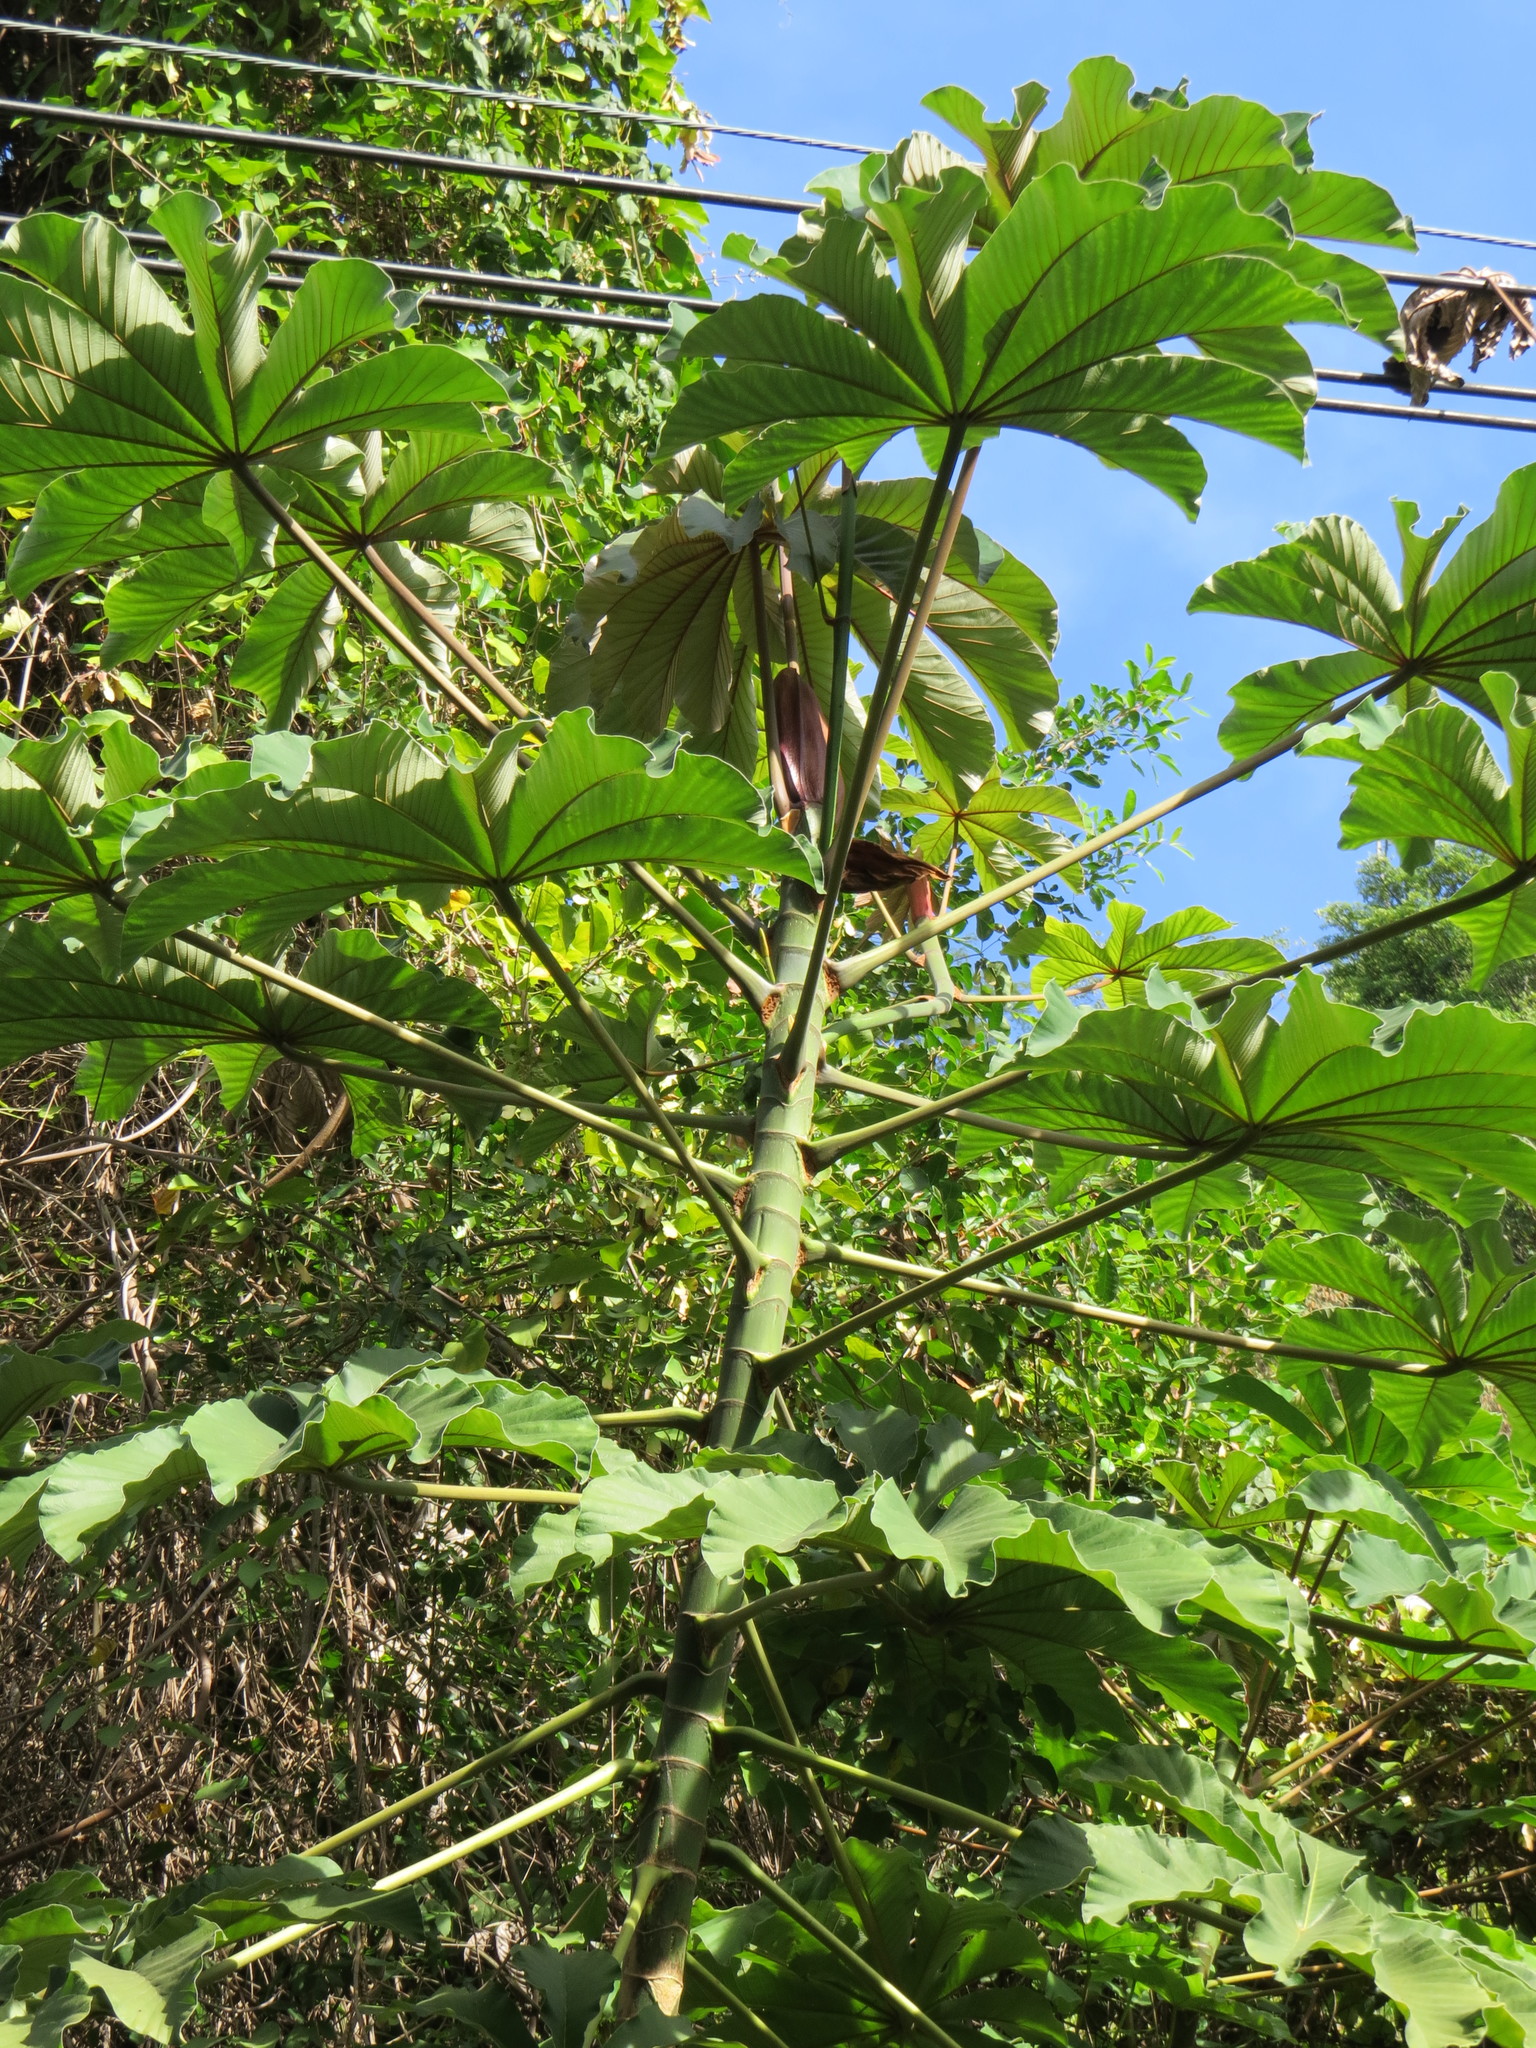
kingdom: Plantae
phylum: Tracheophyta
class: Magnoliopsida
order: Rosales
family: Urticaceae
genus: Cecropia
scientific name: Cecropia glaziovii
